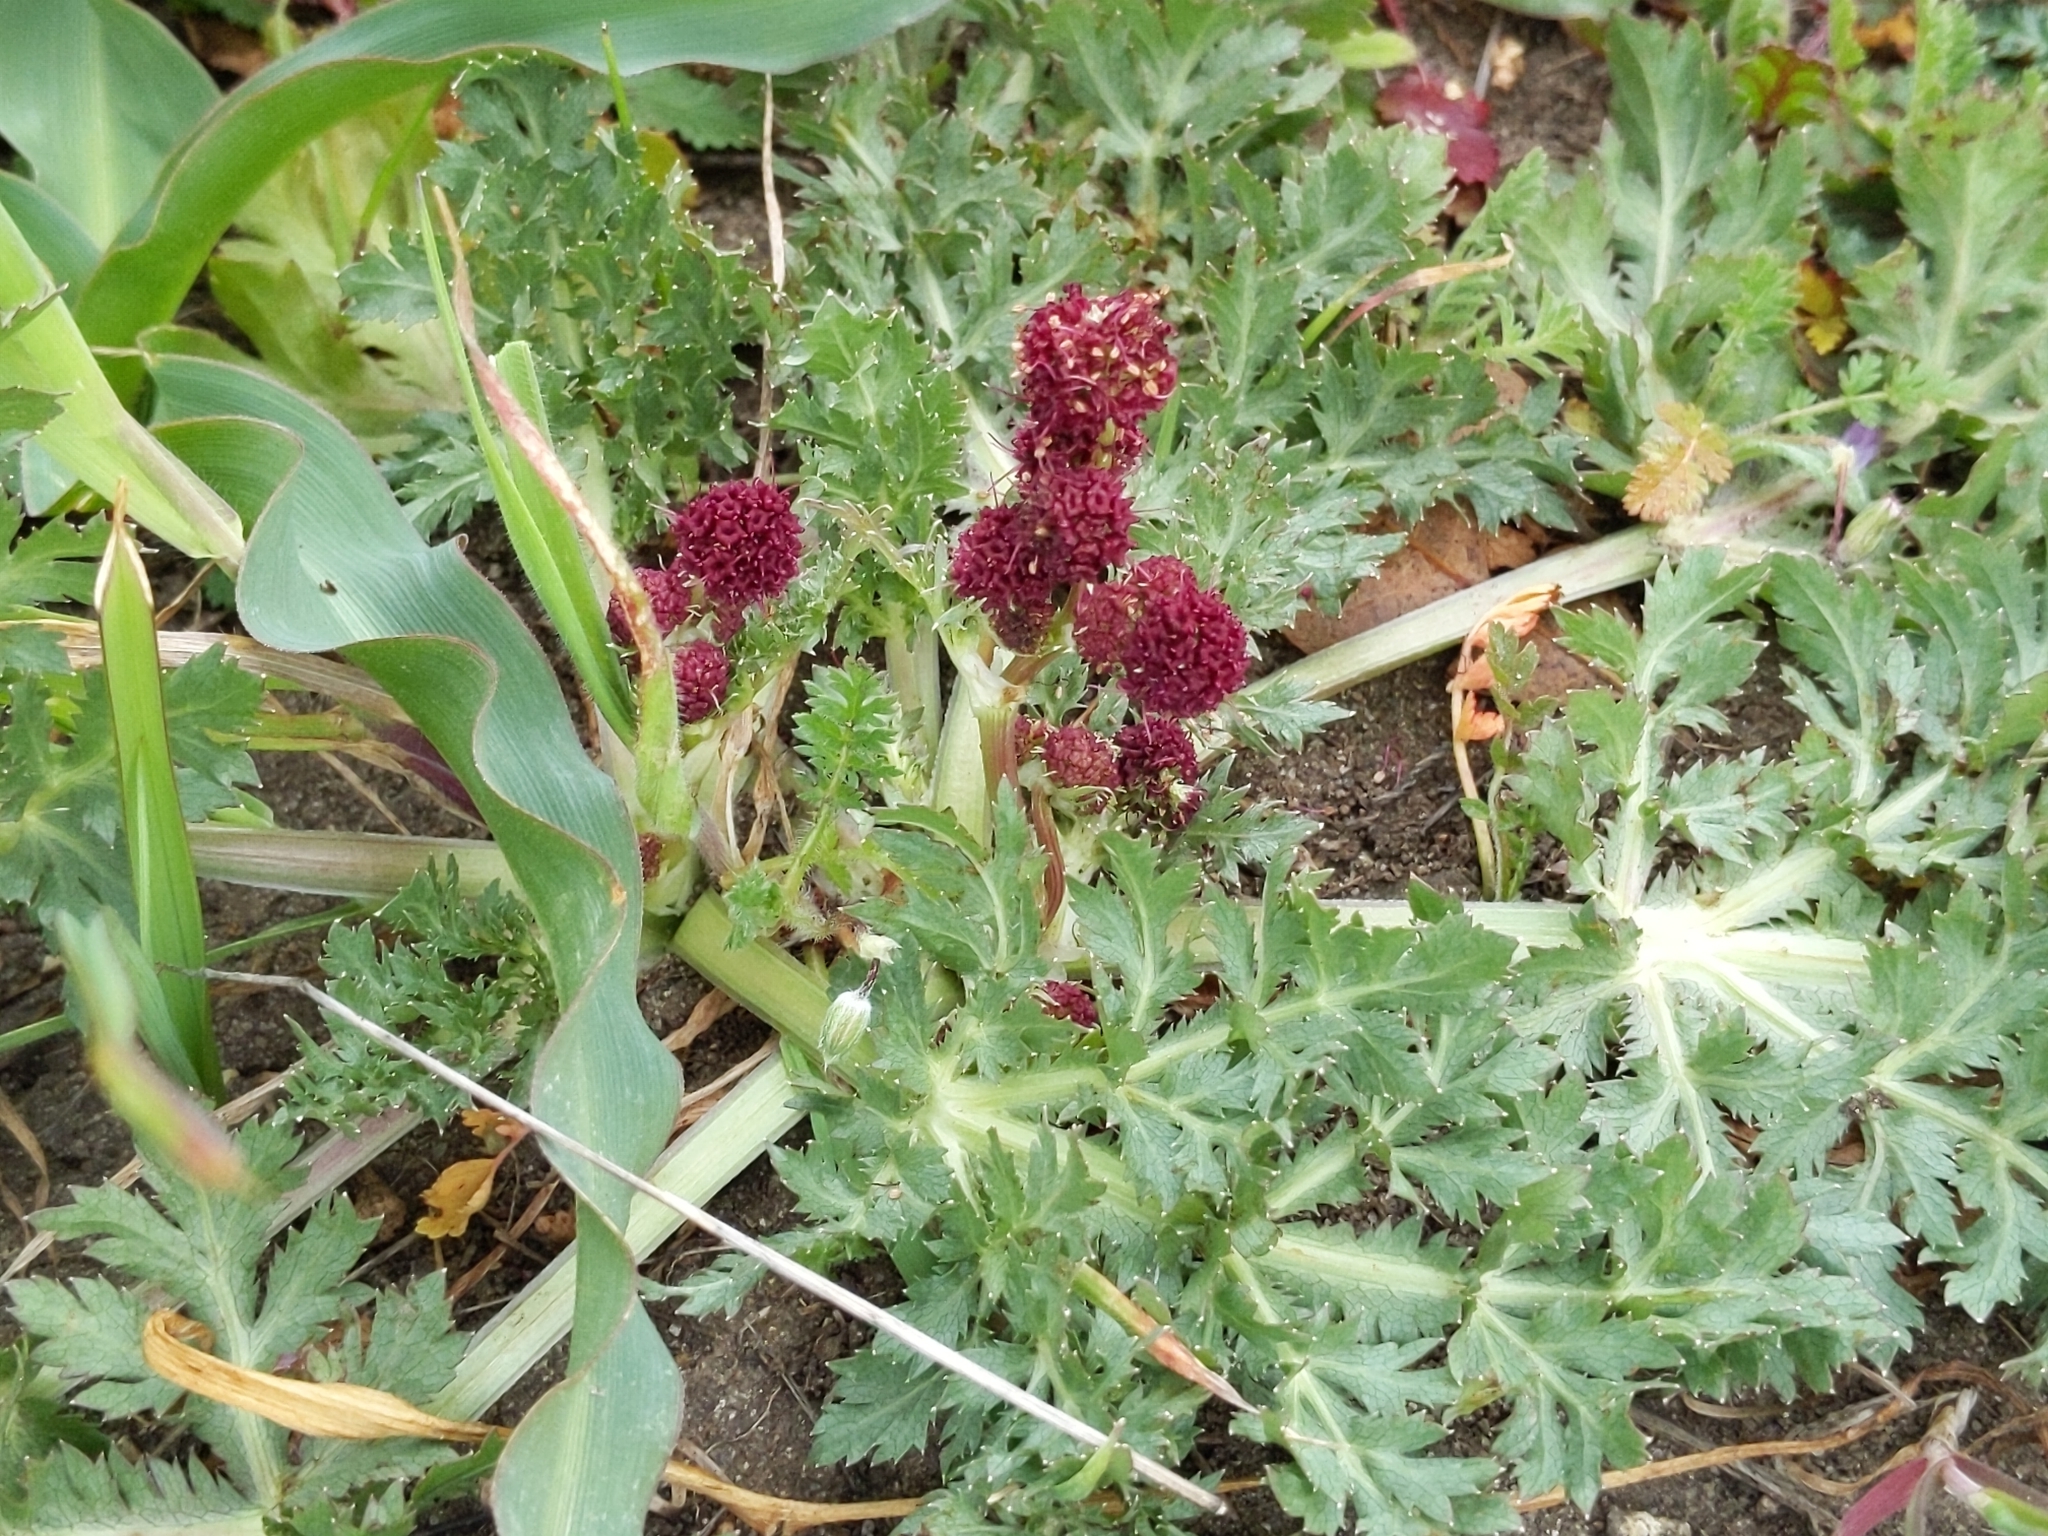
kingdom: Plantae
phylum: Tracheophyta
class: Magnoliopsida
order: Apiales
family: Apiaceae
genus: Sanicula
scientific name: Sanicula bipinnatifida
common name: Shoe-buttons
